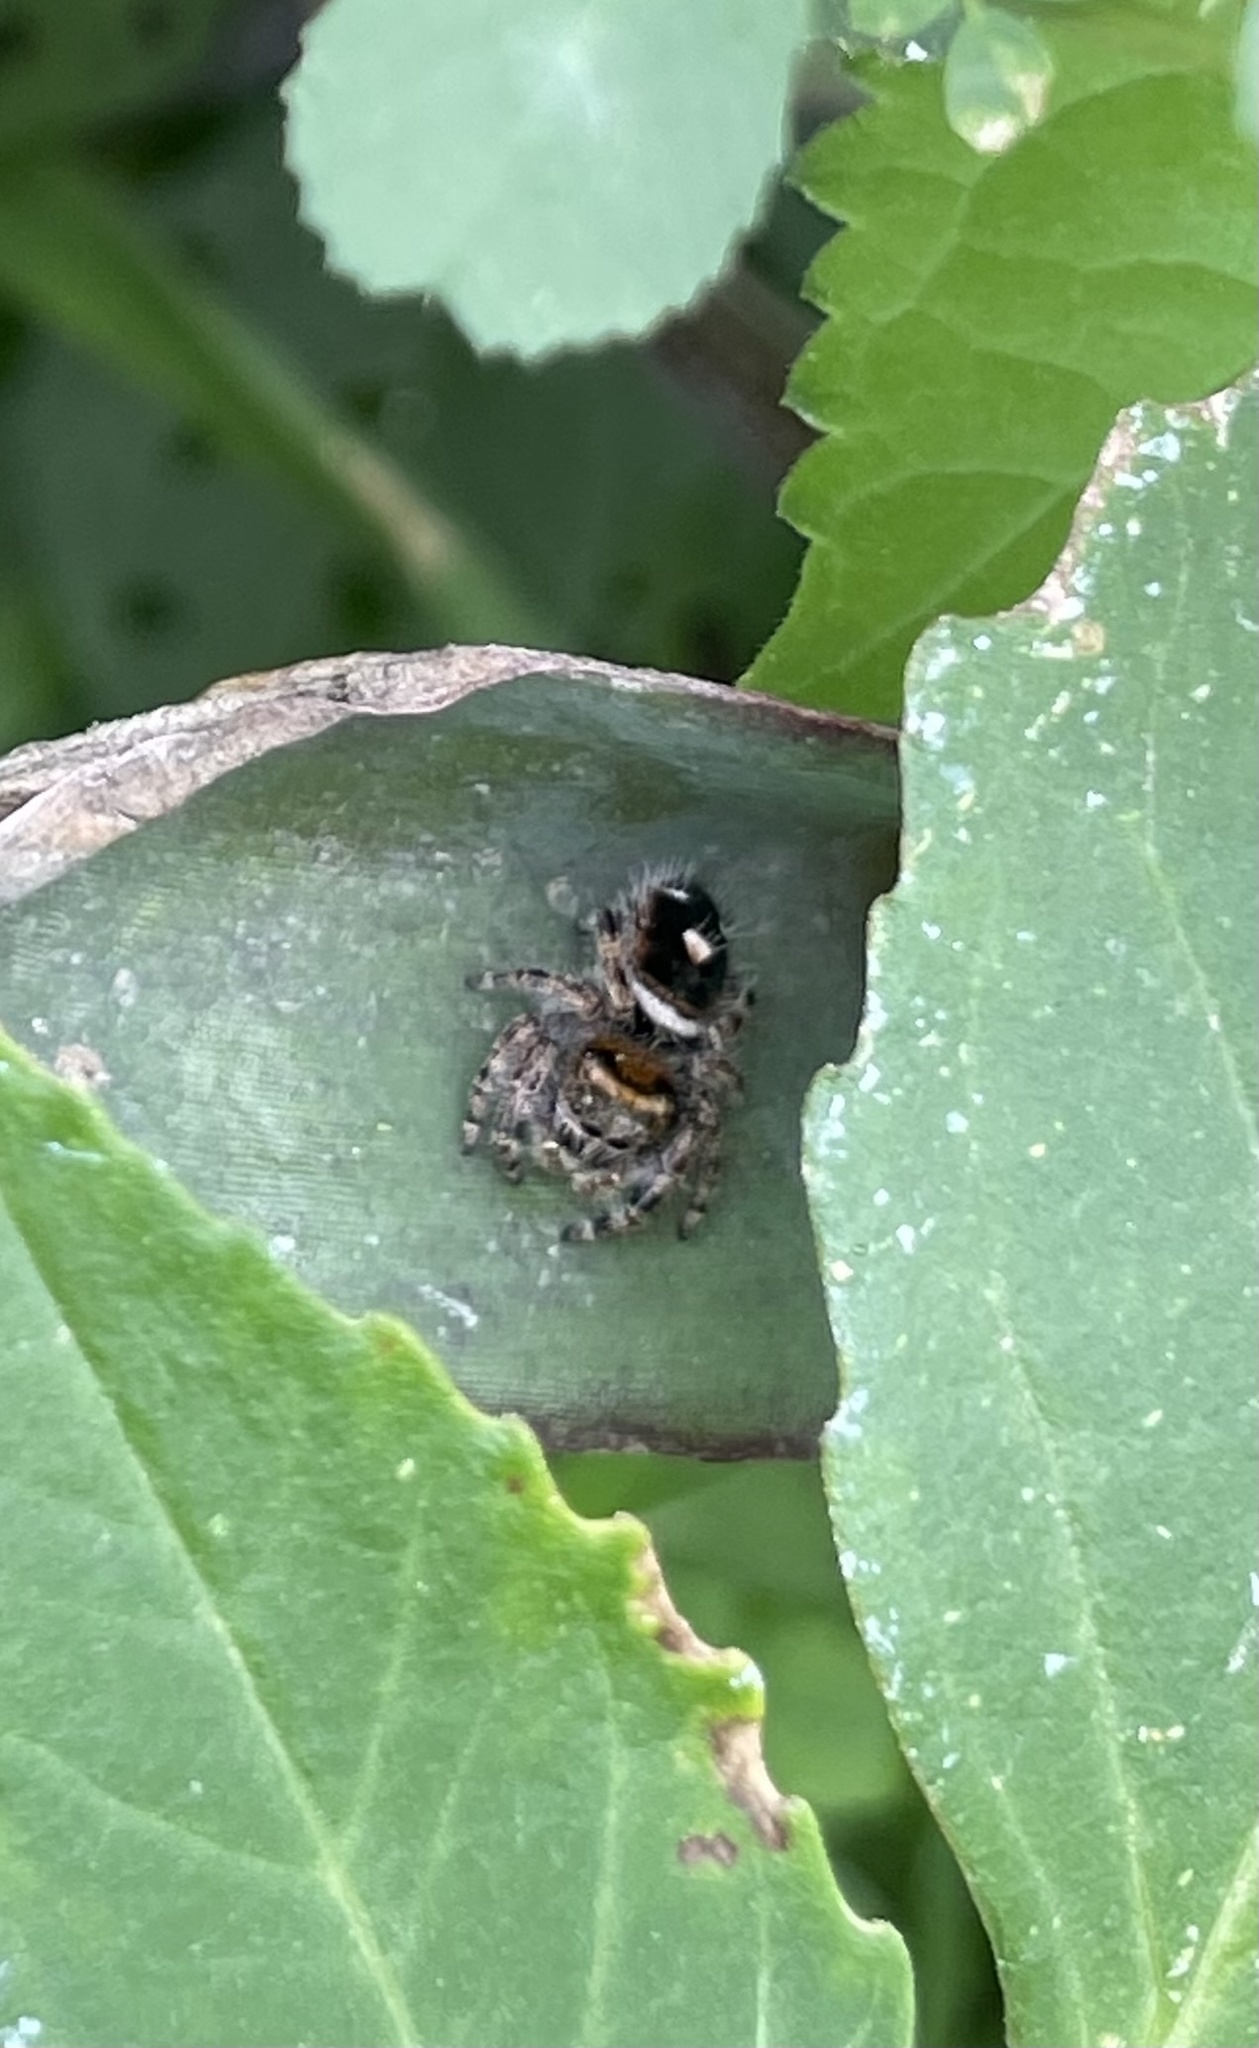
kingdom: Animalia
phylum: Arthropoda
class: Arachnida
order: Araneae
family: Salticidae
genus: Phidippus
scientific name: Phidippus audax
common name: Bold jumper
